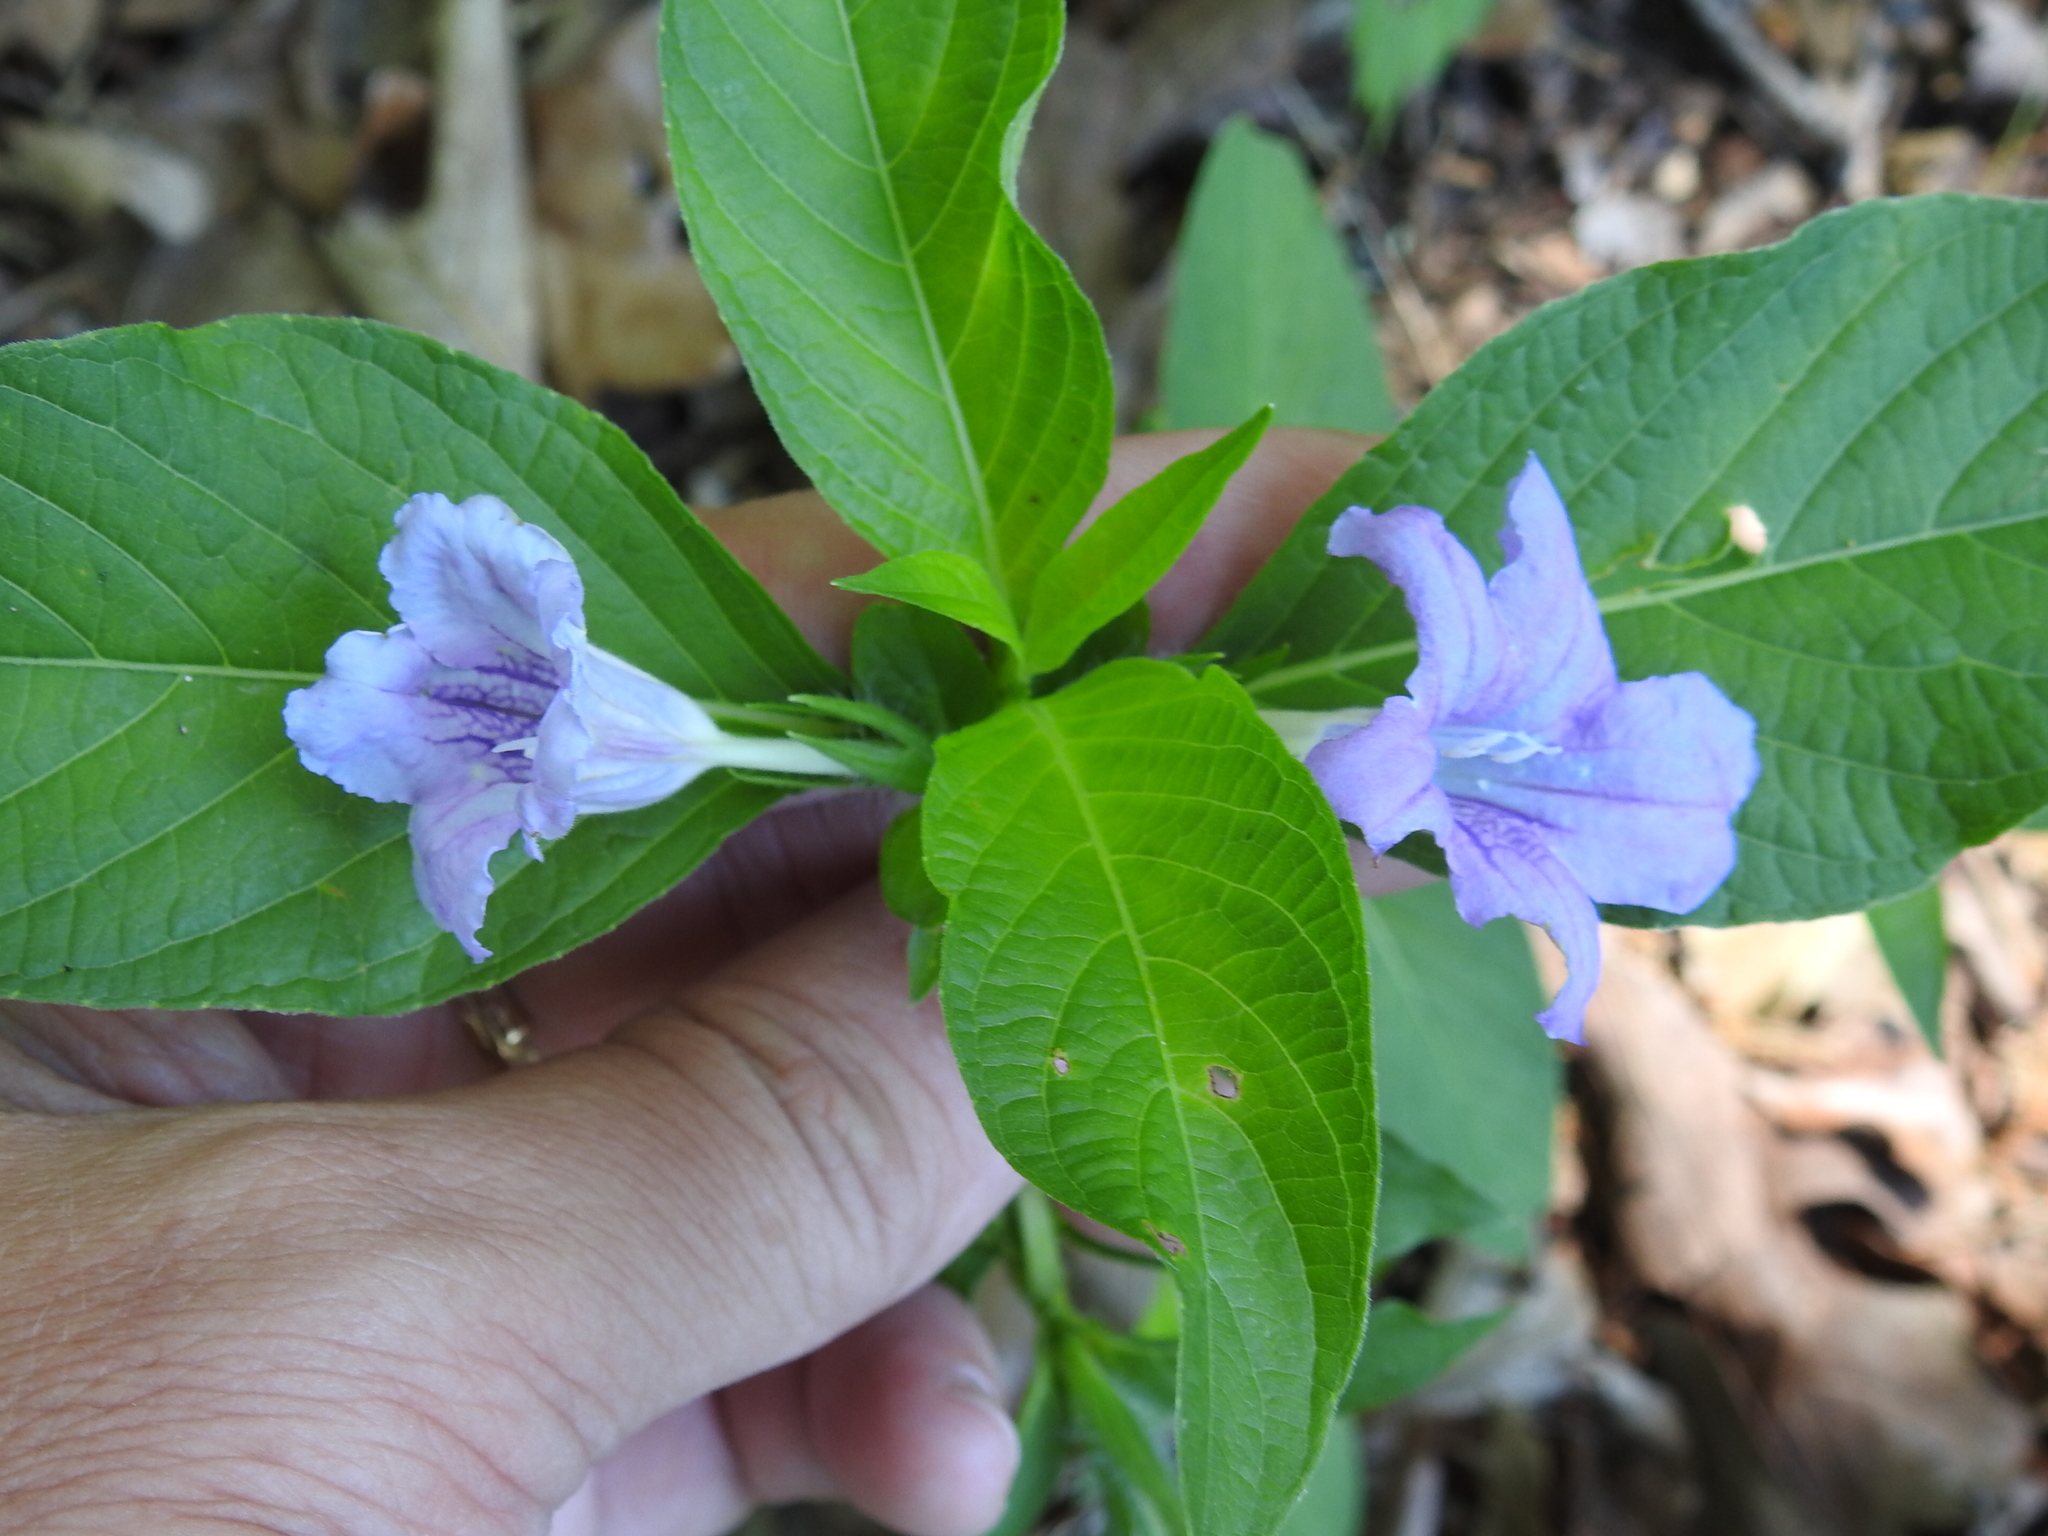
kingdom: Plantae
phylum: Tracheophyta
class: Magnoliopsida
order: Lamiales
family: Acanthaceae
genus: Ruellia
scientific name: Ruellia strepens
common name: Limestone wild petunia
